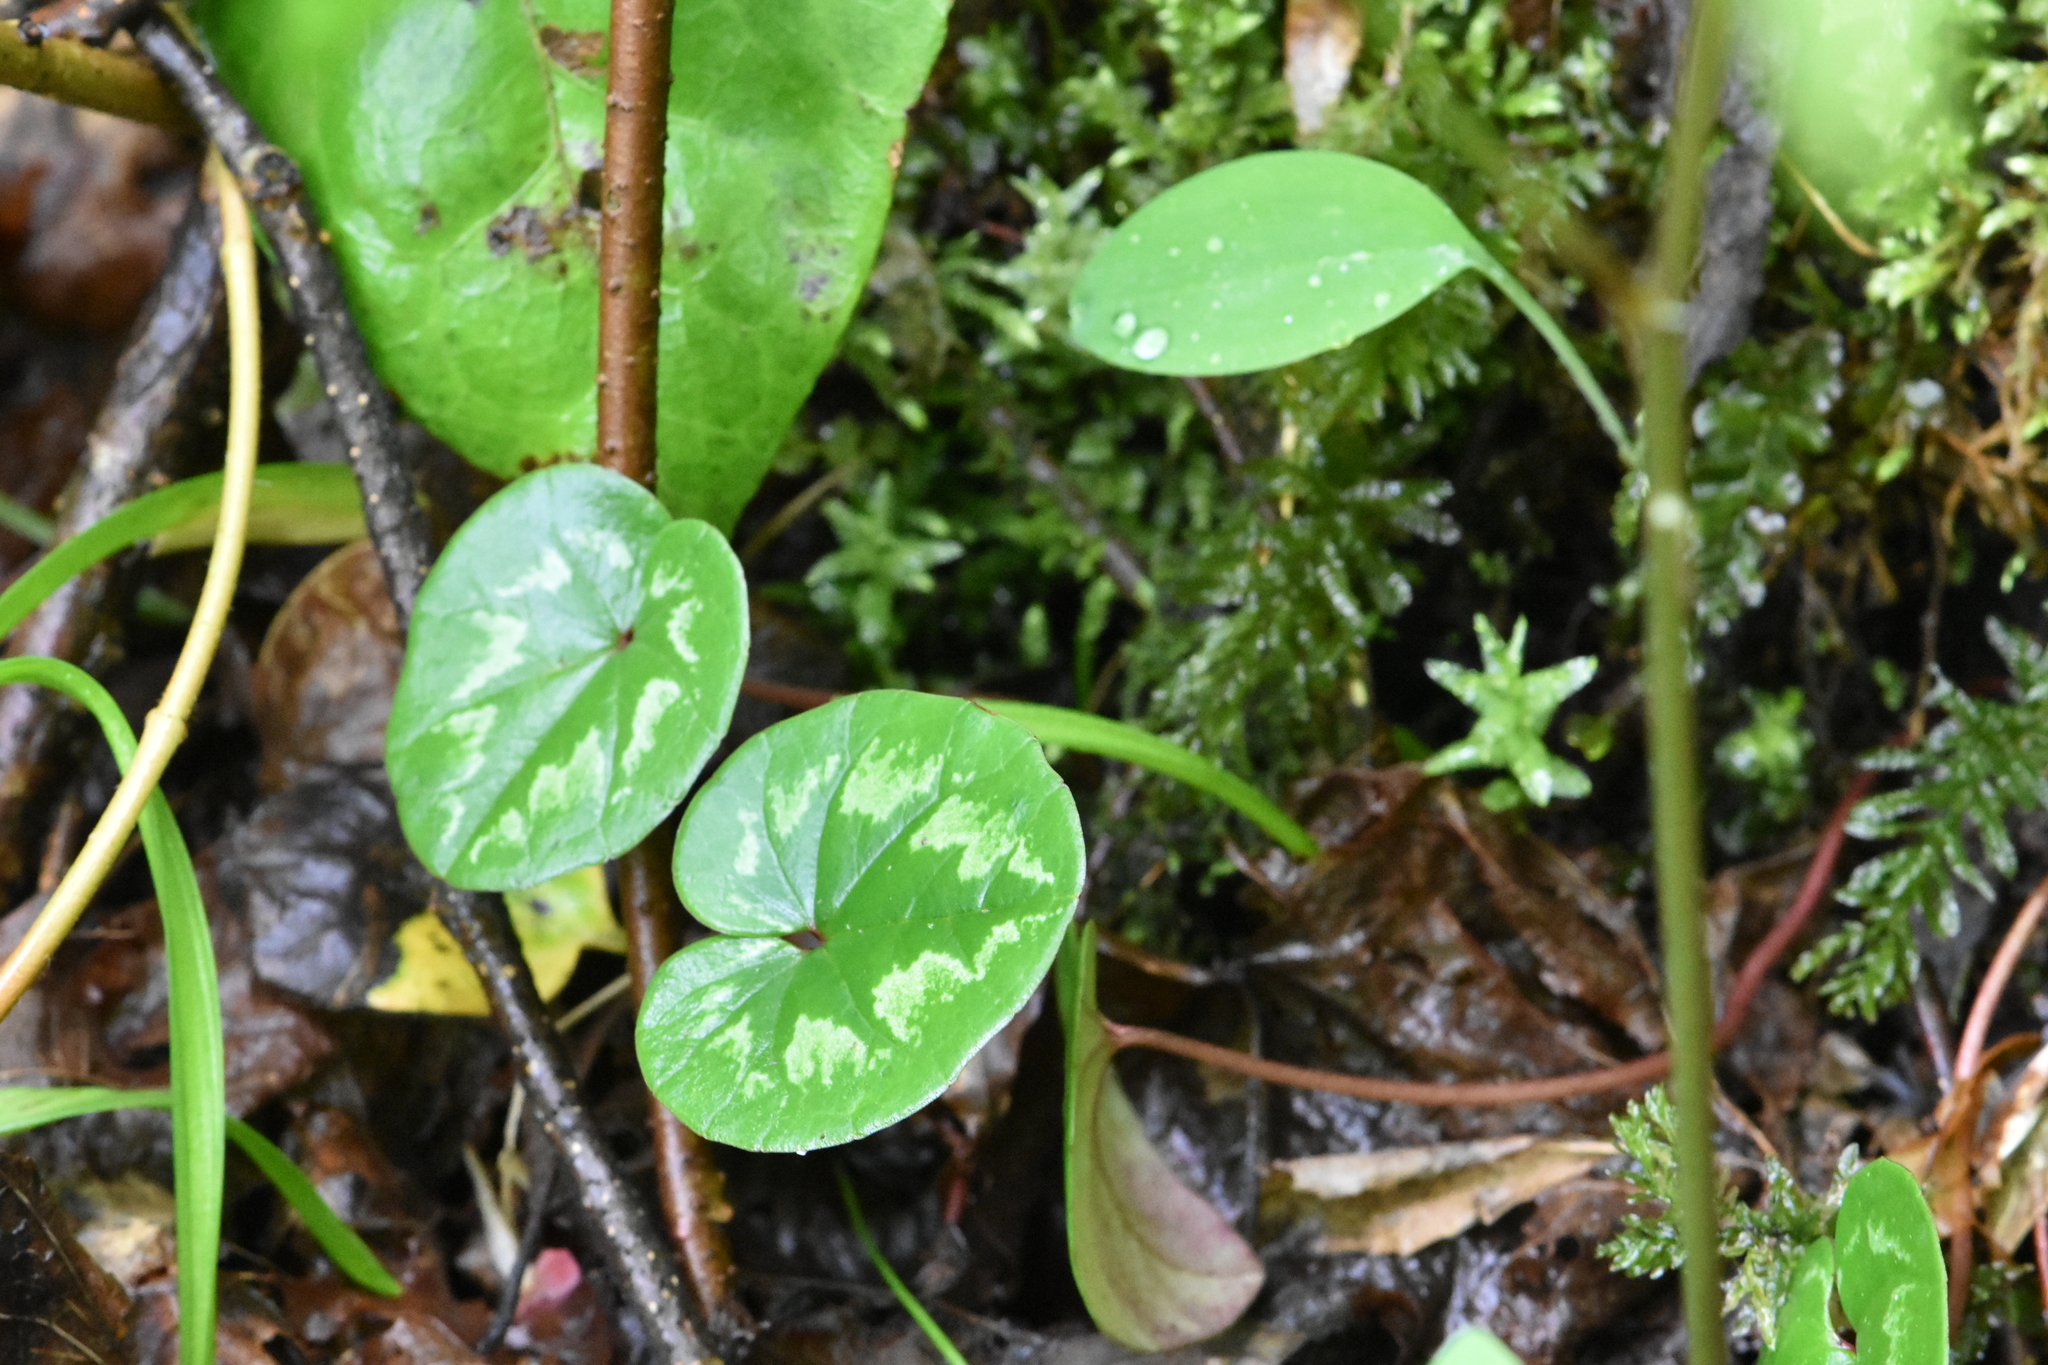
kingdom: Plantae
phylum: Tracheophyta
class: Magnoliopsida
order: Ericales
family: Primulaceae
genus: Cyclamen
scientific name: Cyclamen coum
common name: Eastern sowbread
